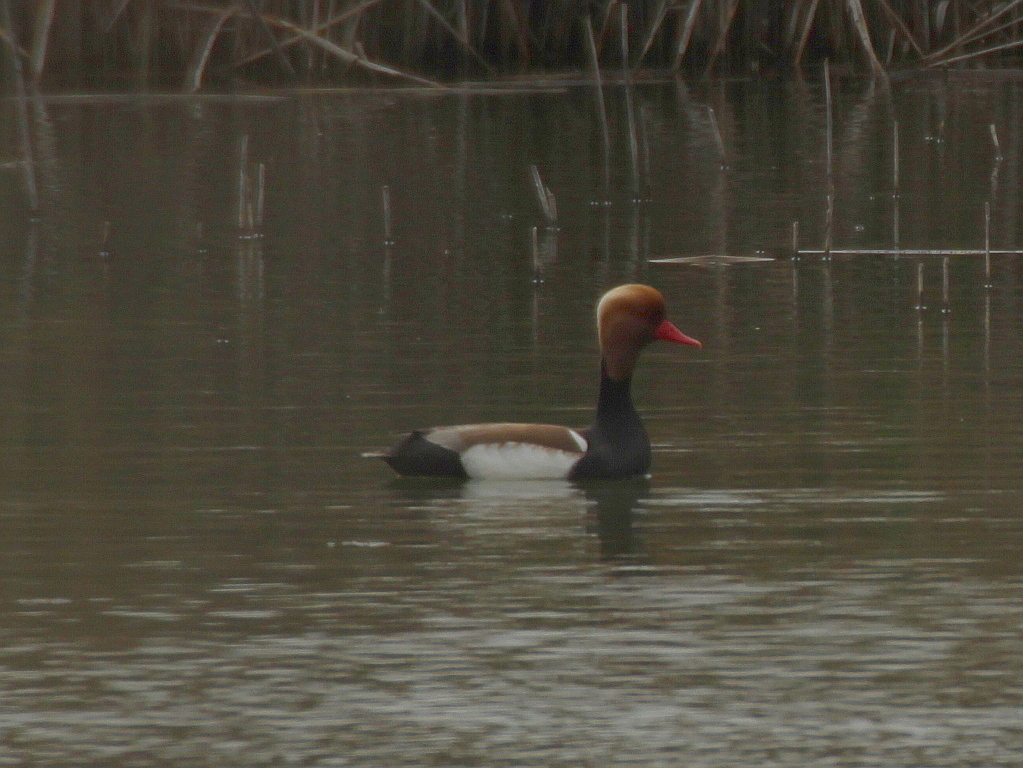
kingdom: Animalia
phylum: Chordata
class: Aves
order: Anseriformes
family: Anatidae
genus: Netta
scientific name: Netta rufina
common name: Red-crested pochard
